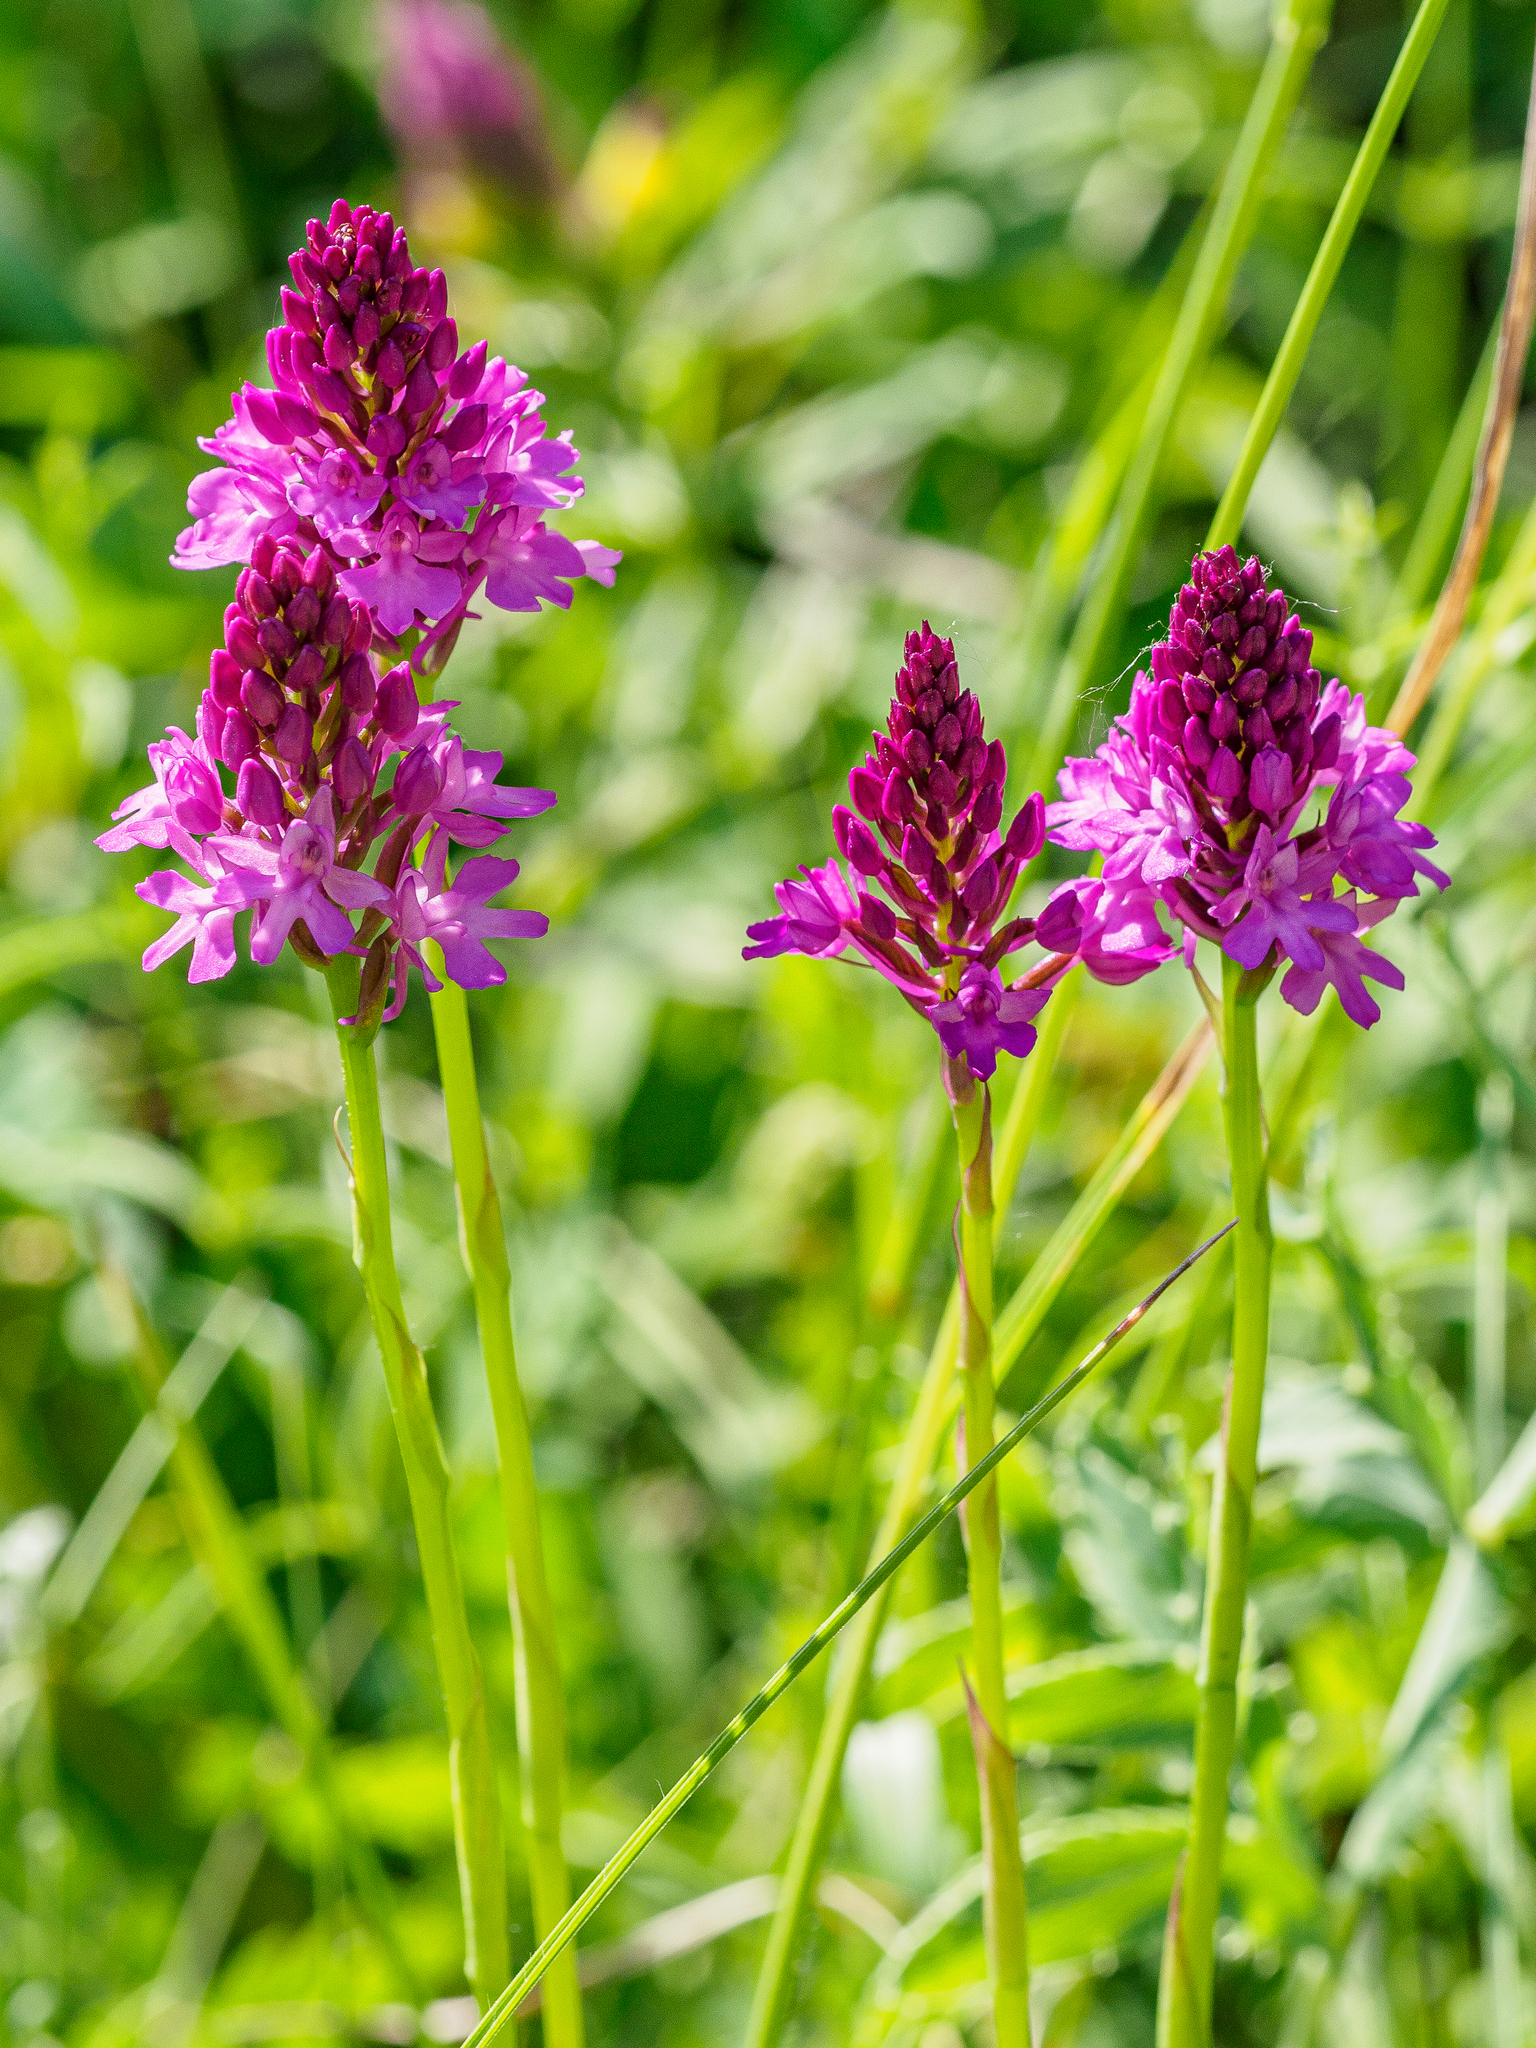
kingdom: Plantae
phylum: Tracheophyta
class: Liliopsida
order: Asparagales
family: Orchidaceae
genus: Anacamptis
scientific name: Anacamptis pyramidalis
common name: Pyramidal orchid
